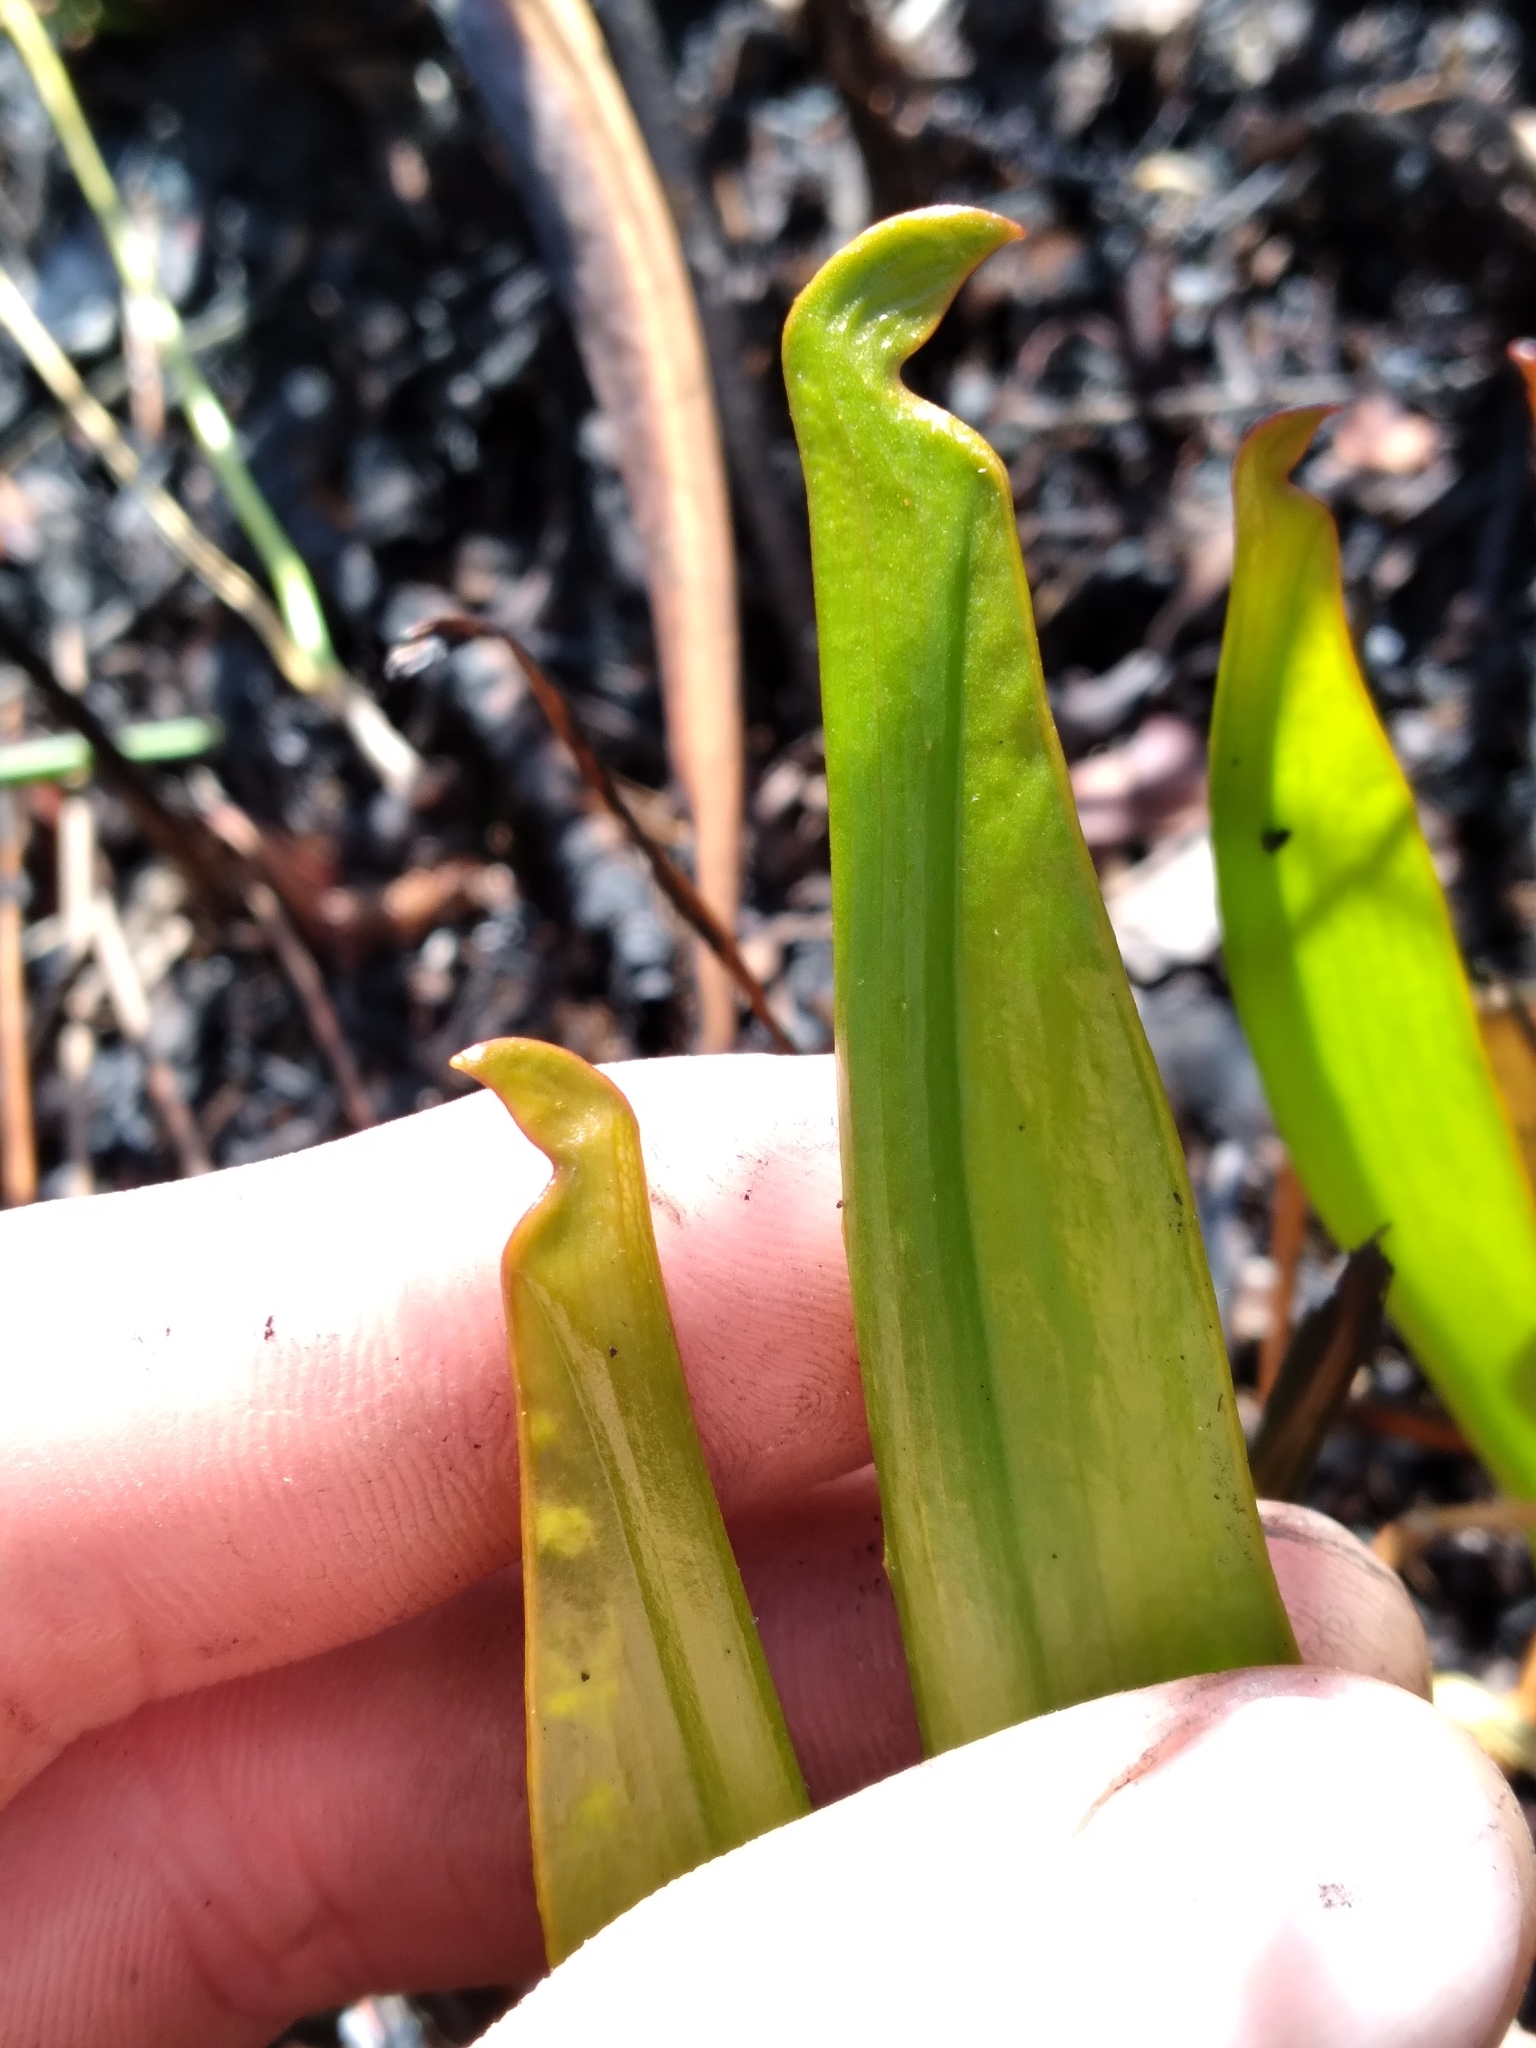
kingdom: Plantae
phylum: Tracheophyta
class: Magnoliopsida
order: Ericales
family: Sarraceniaceae
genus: Sarracenia
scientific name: Sarracenia minor
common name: Rainhat-trumpet
